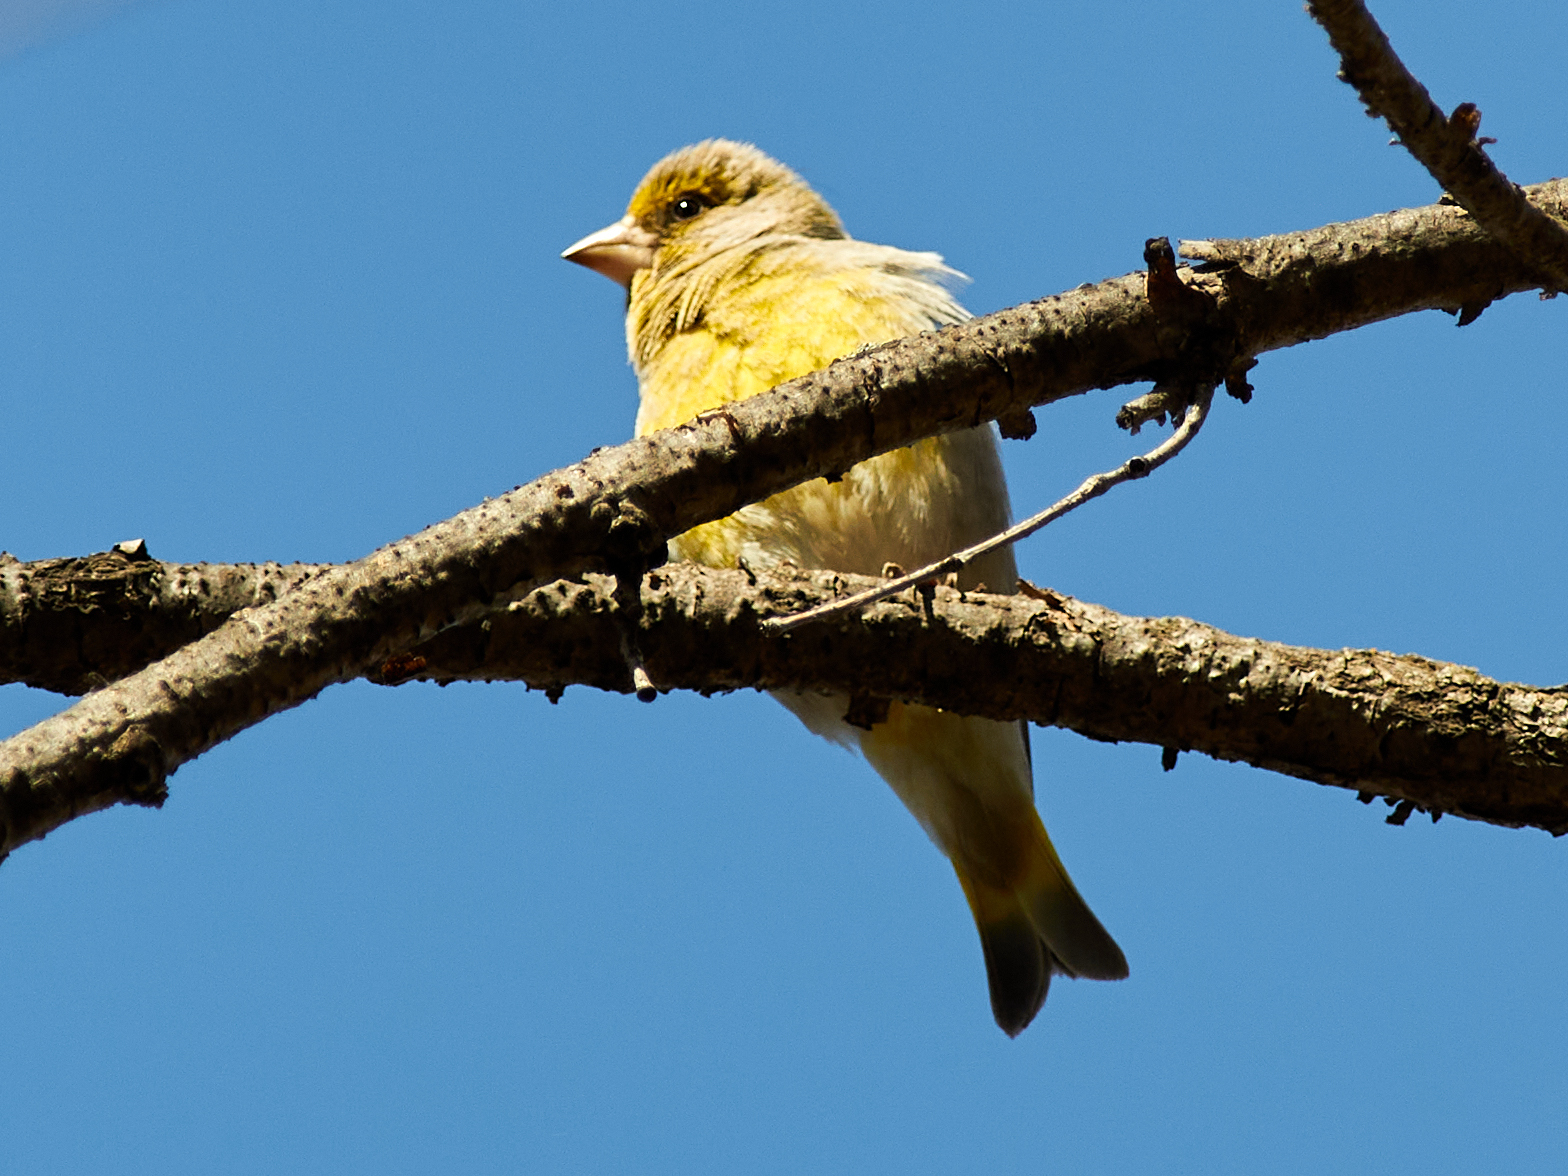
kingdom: Plantae
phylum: Tracheophyta
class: Liliopsida
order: Poales
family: Poaceae
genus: Chloris
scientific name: Chloris chloris
